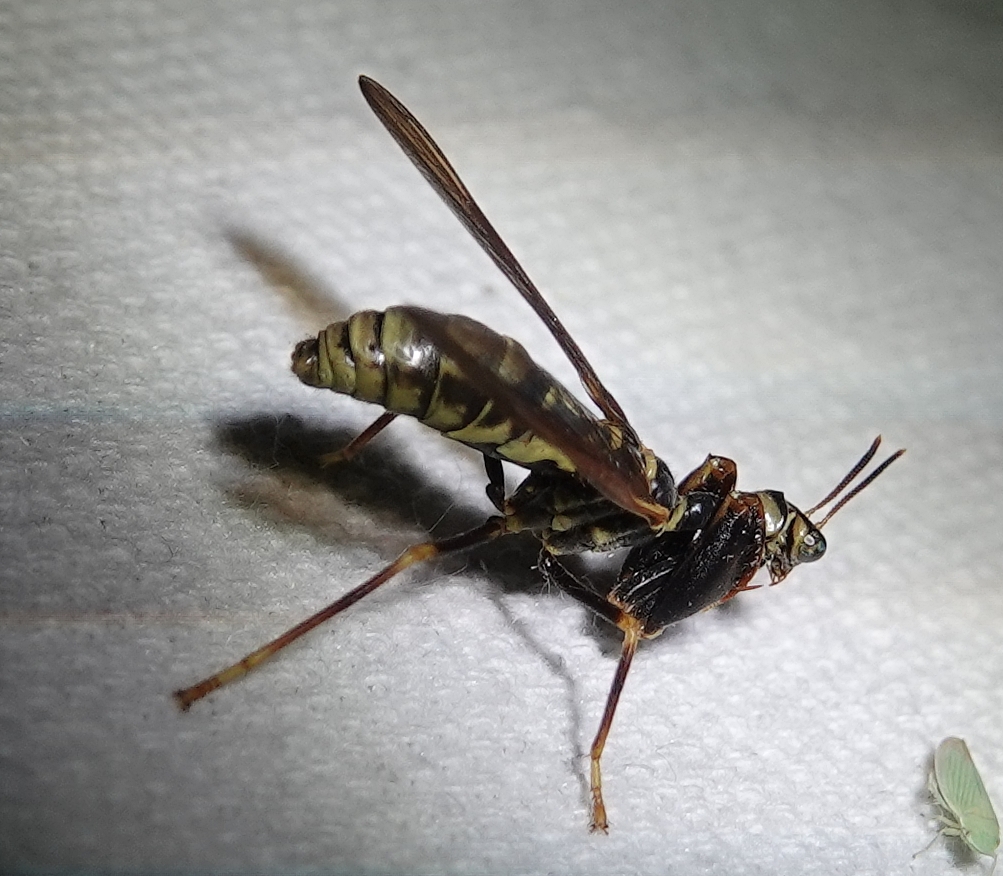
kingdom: Animalia
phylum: Arthropoda
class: Insecta
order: Neuroptera
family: Mantispidae
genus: Climaciella
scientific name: Climaciella brunnea
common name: Brown wasp mantidfly
